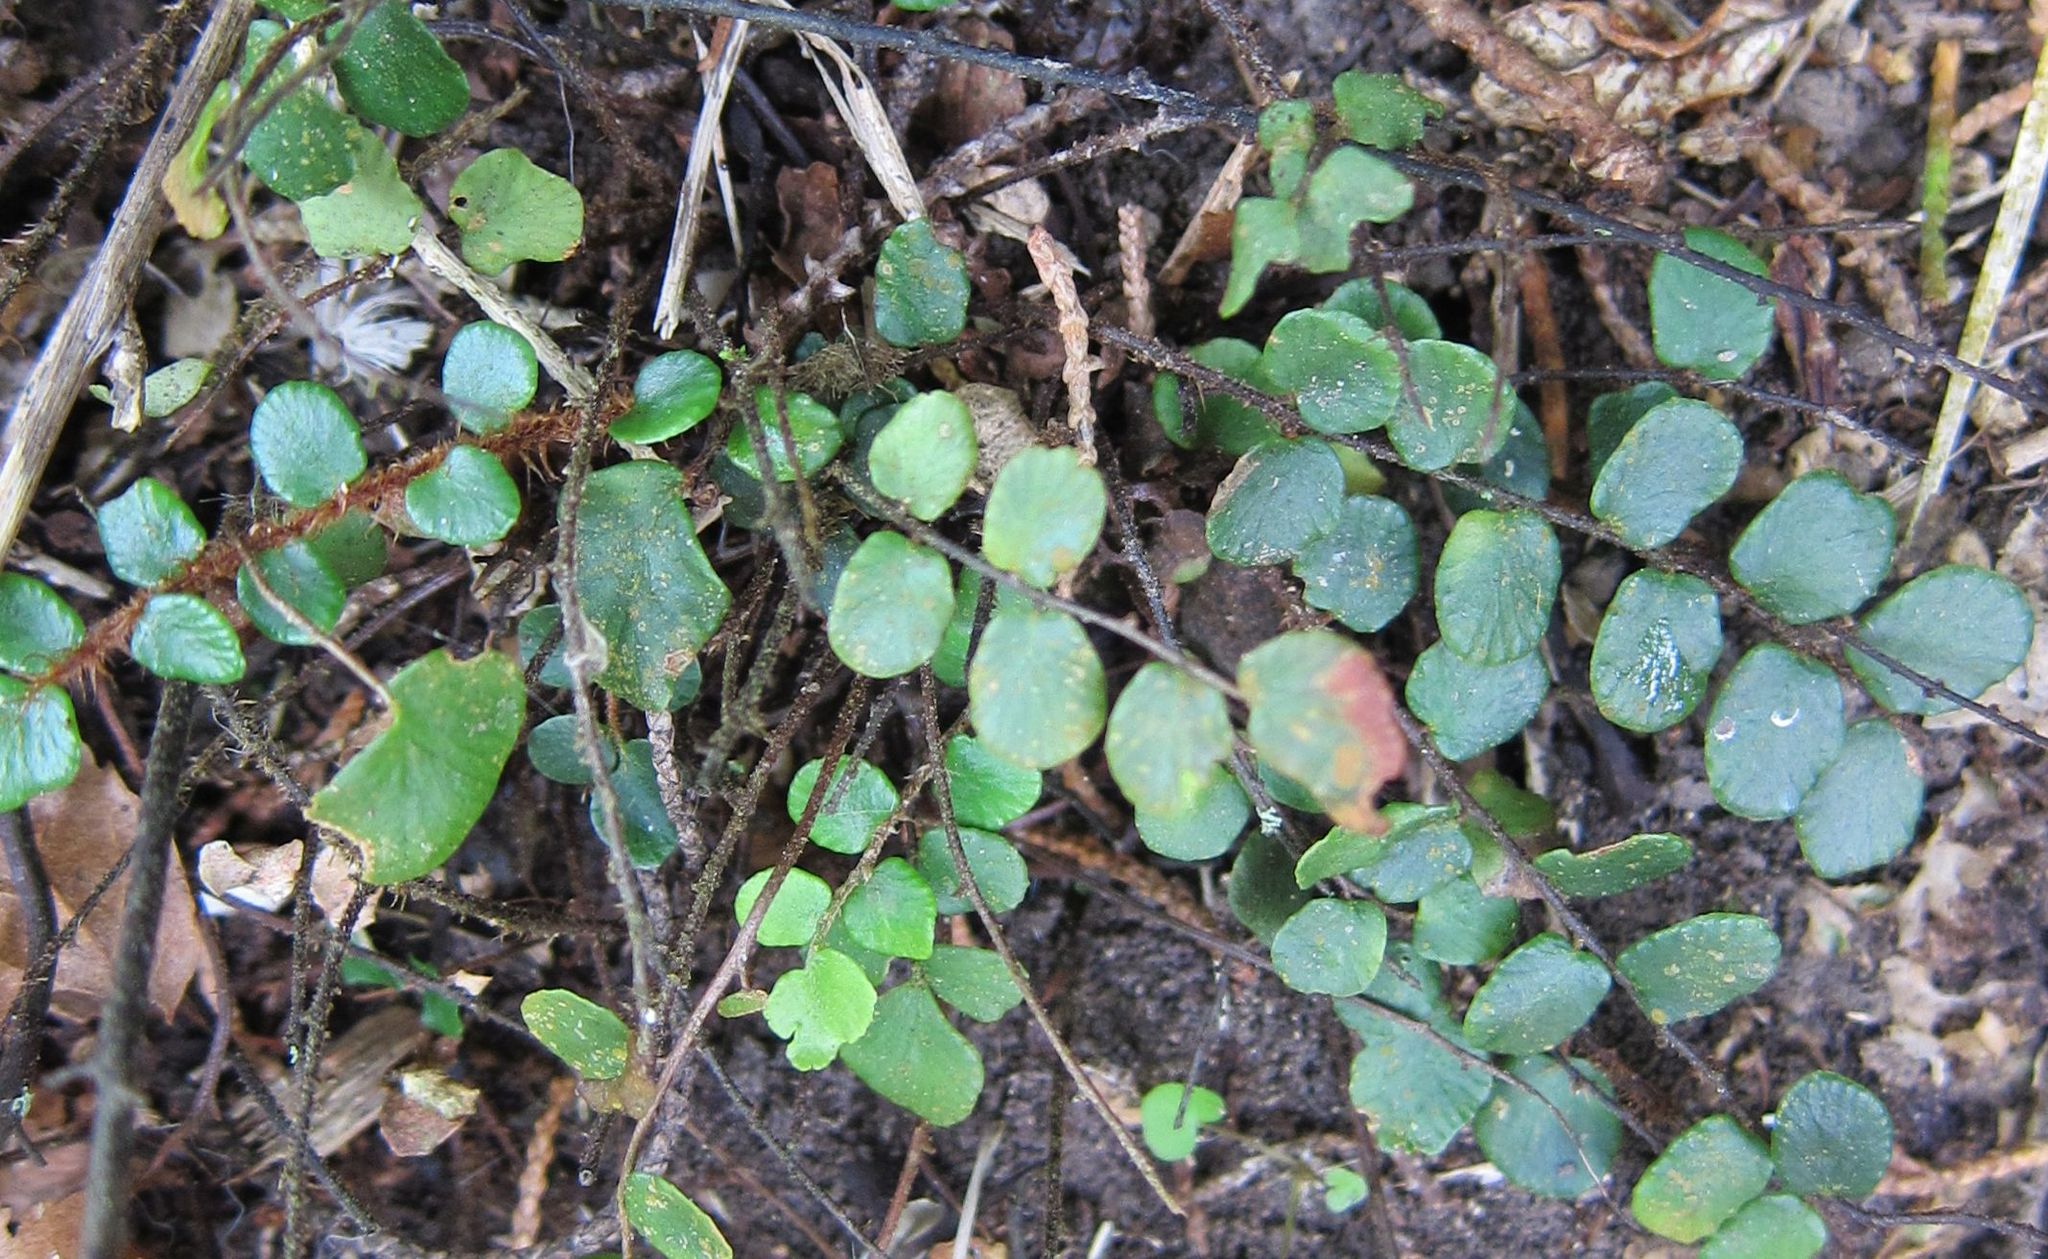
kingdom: Plantae
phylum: Tracheophyta
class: Polypodiopsida
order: Polypodiales
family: Pteridaceae
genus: Pellaea
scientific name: Pellaea rotundifolia
